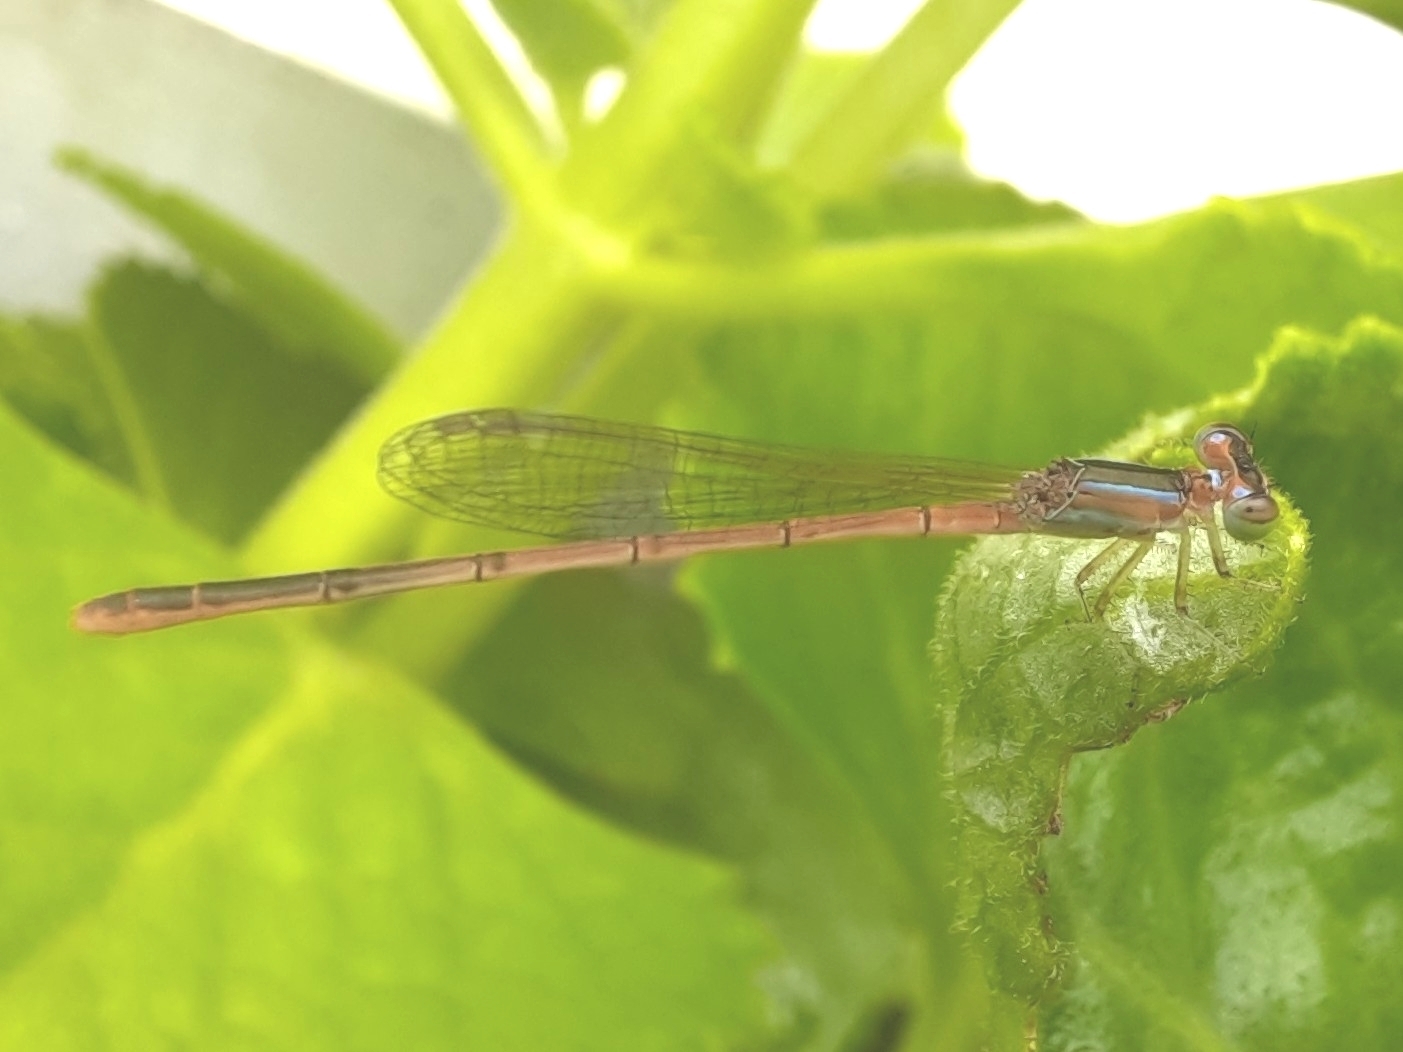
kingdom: Animalia
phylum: Arthropoda
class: Insecta
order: Odonata
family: Coenagrionidae
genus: Agriocnemis
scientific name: Agriocnemis pygmaea
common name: Pygmy wisp
